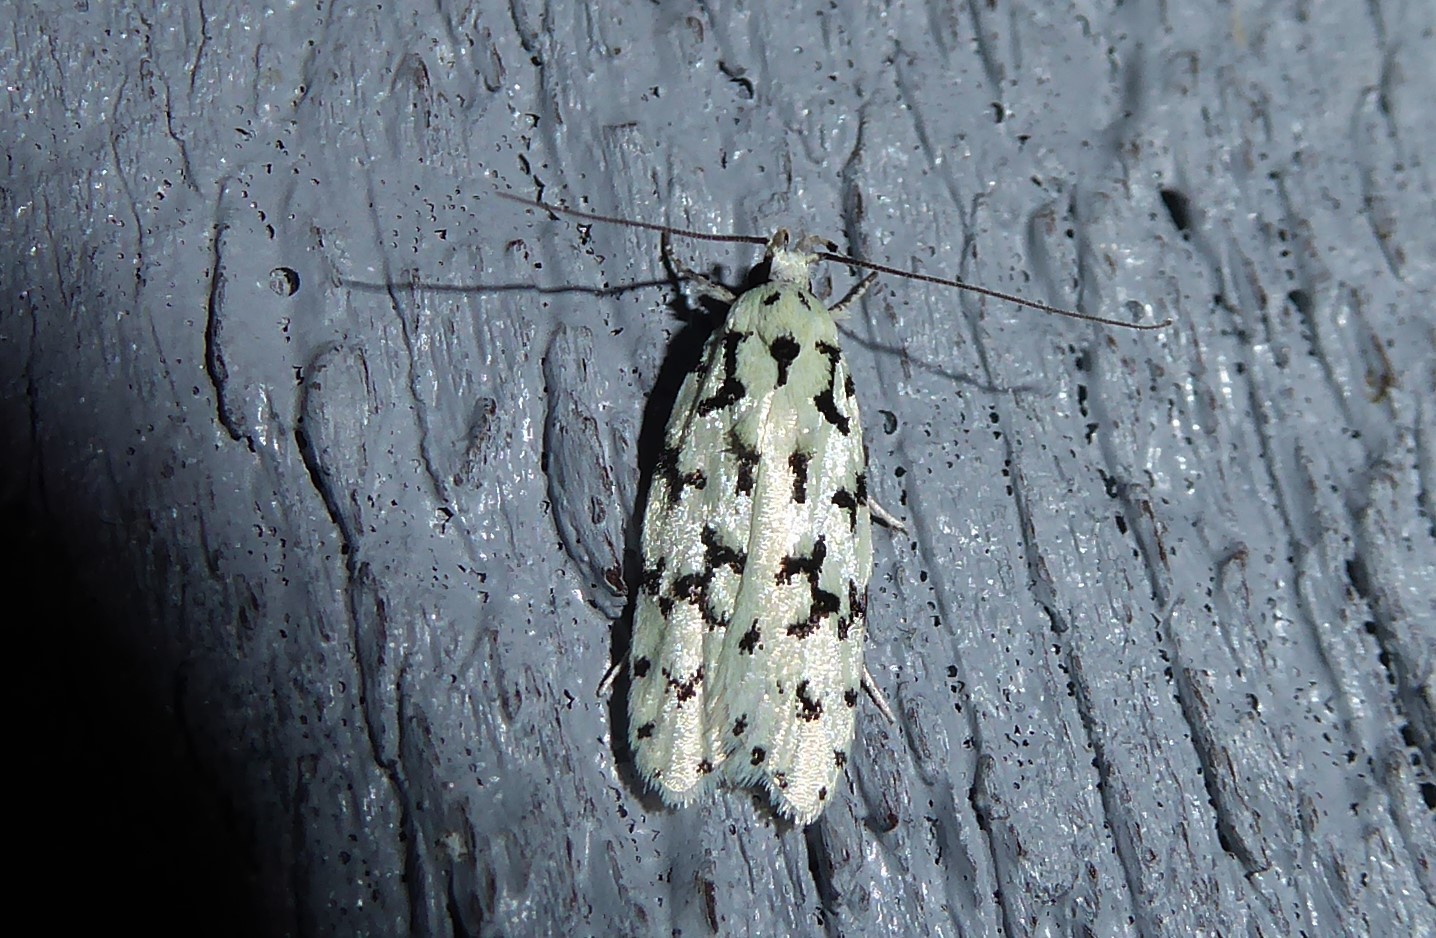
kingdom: Animalia
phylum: Arthropoda
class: Insecta
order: Lepidoptera
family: Oecophoridae
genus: Izatha
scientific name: Izatha huttoni
